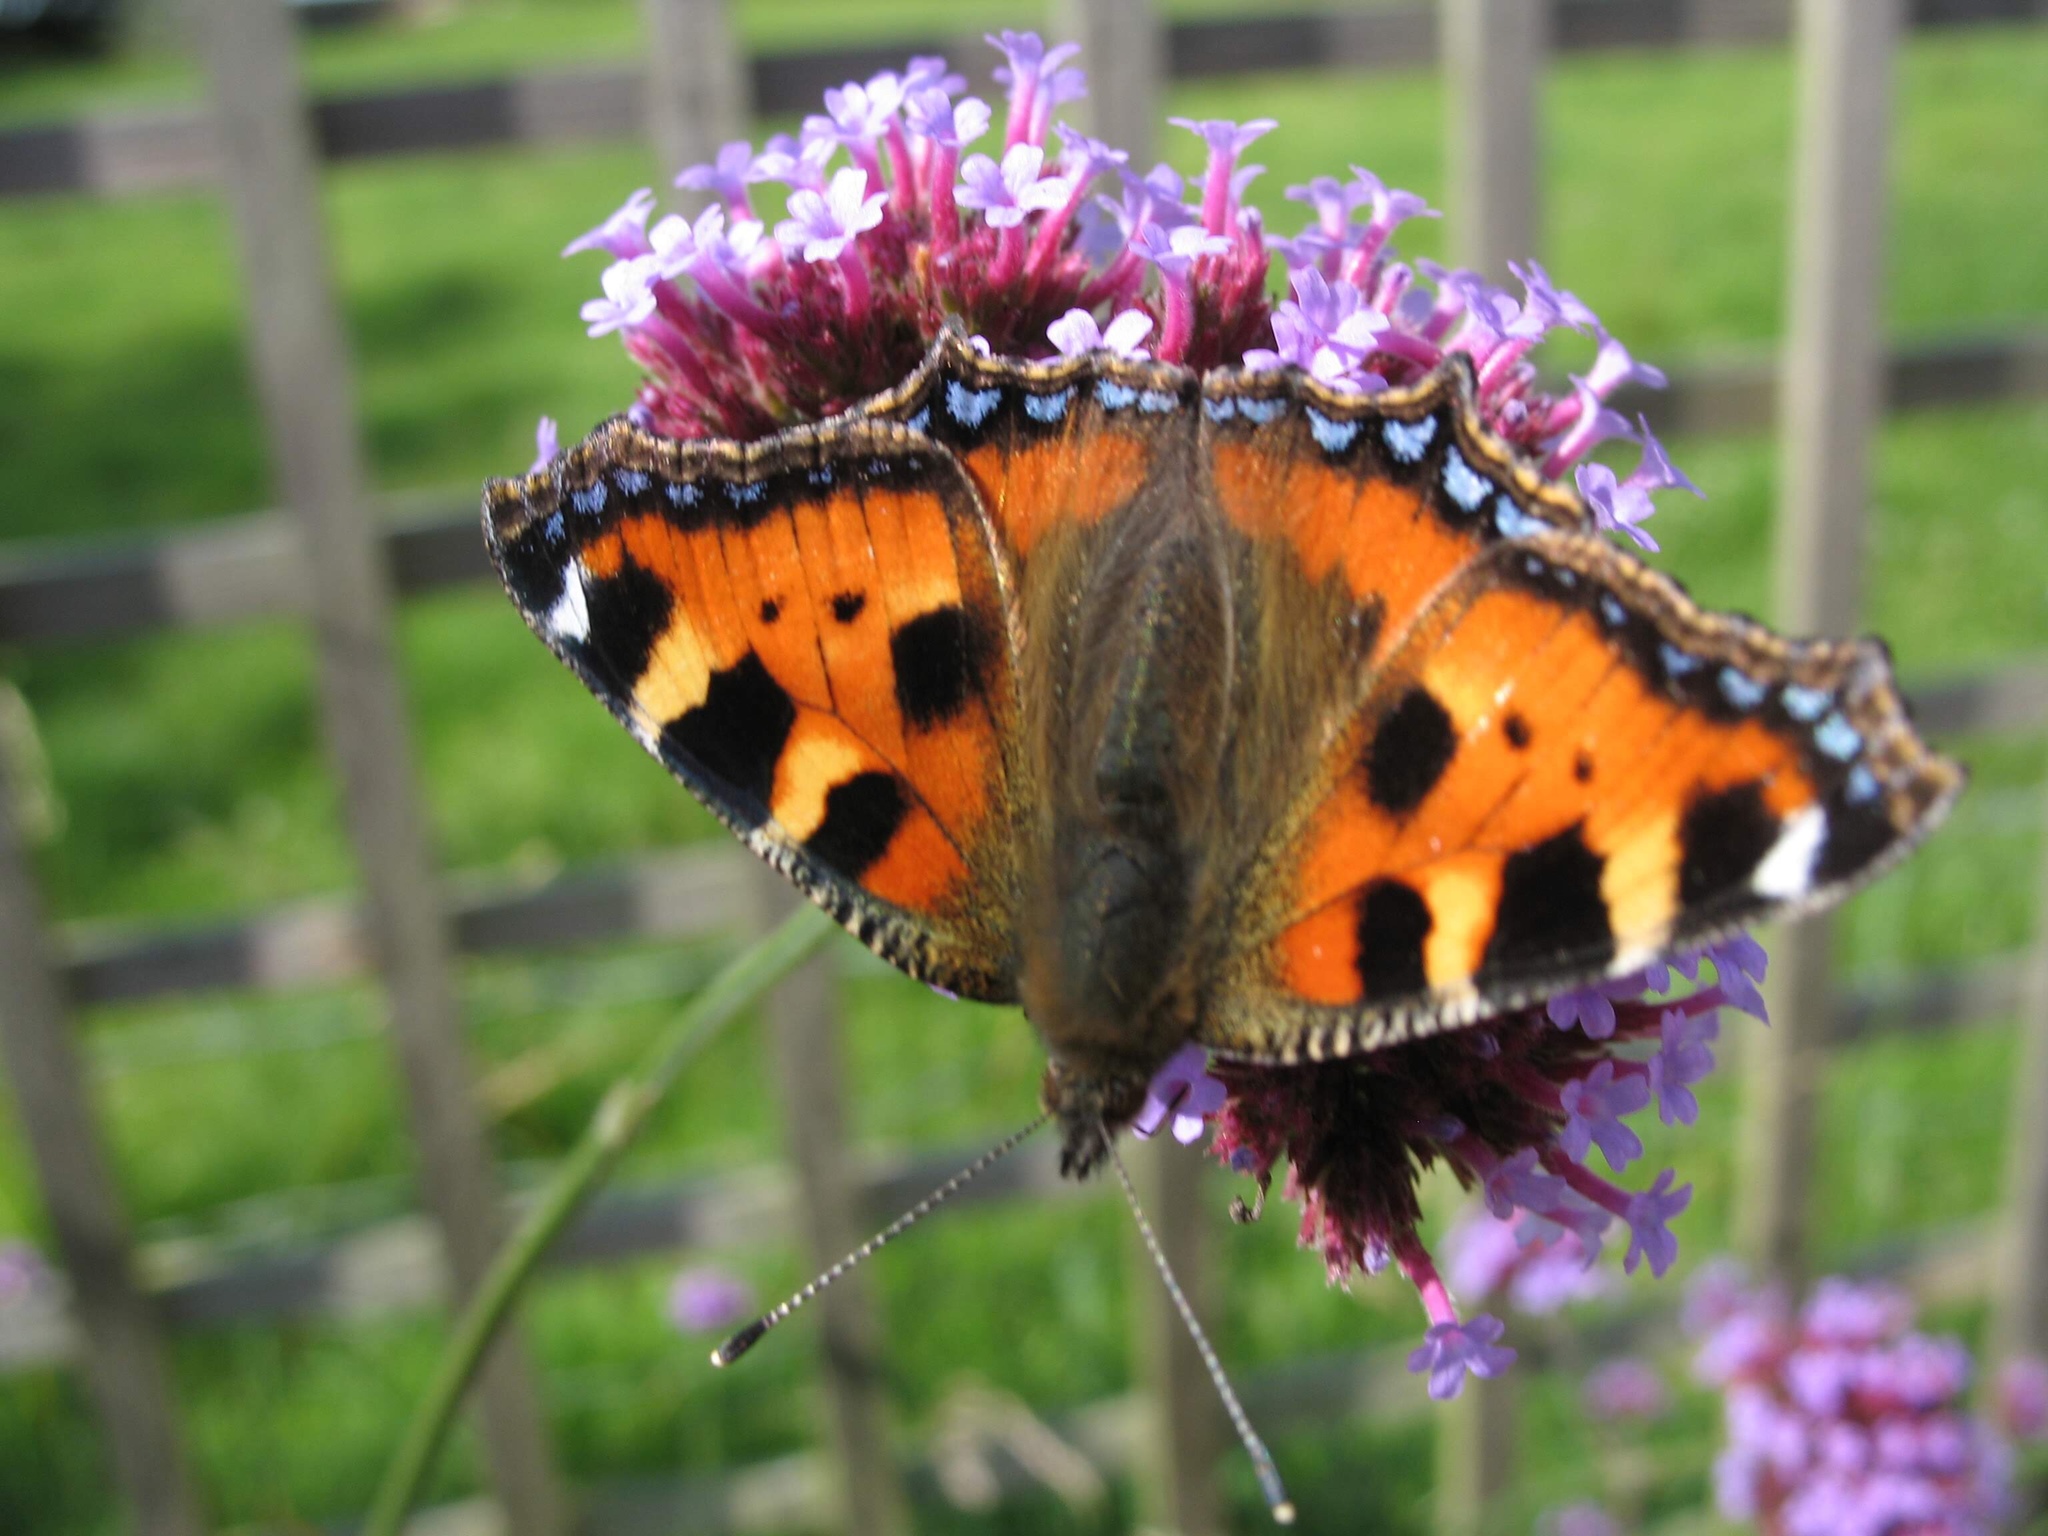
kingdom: Animalia
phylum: Arthropoda
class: Insecta
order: Lepidoptera
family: Nymphalidae
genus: Aglais
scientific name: Aglais urticae
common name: Small tortoiseshell
